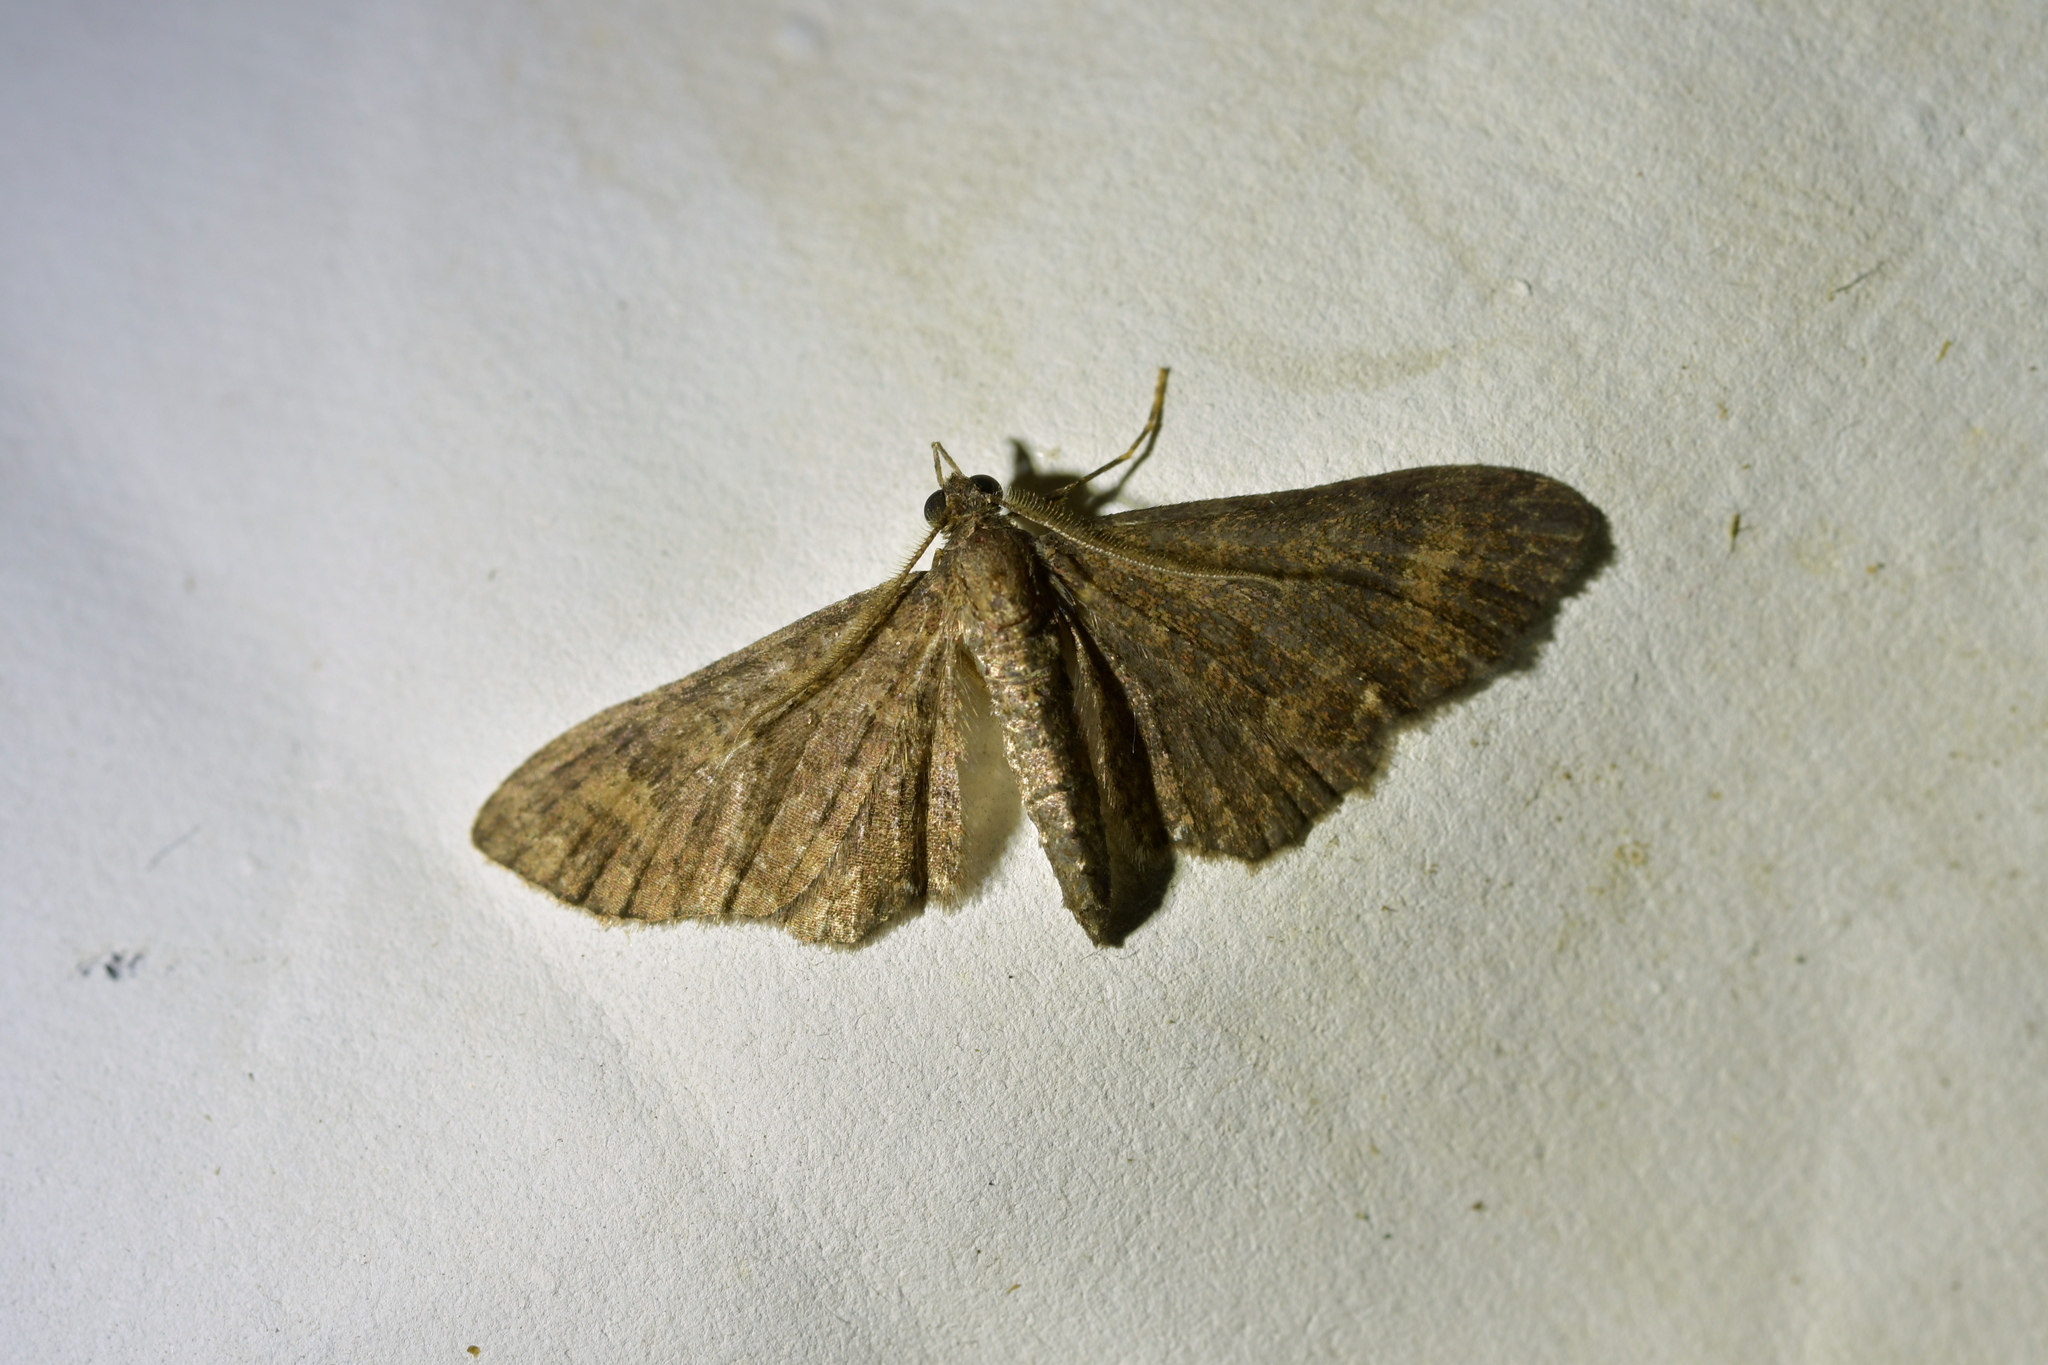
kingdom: Animalia
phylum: Arthropoda
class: Insecta
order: Lepidoptera
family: Geometridae
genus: Pasiphila
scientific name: Pasiphila dryas
